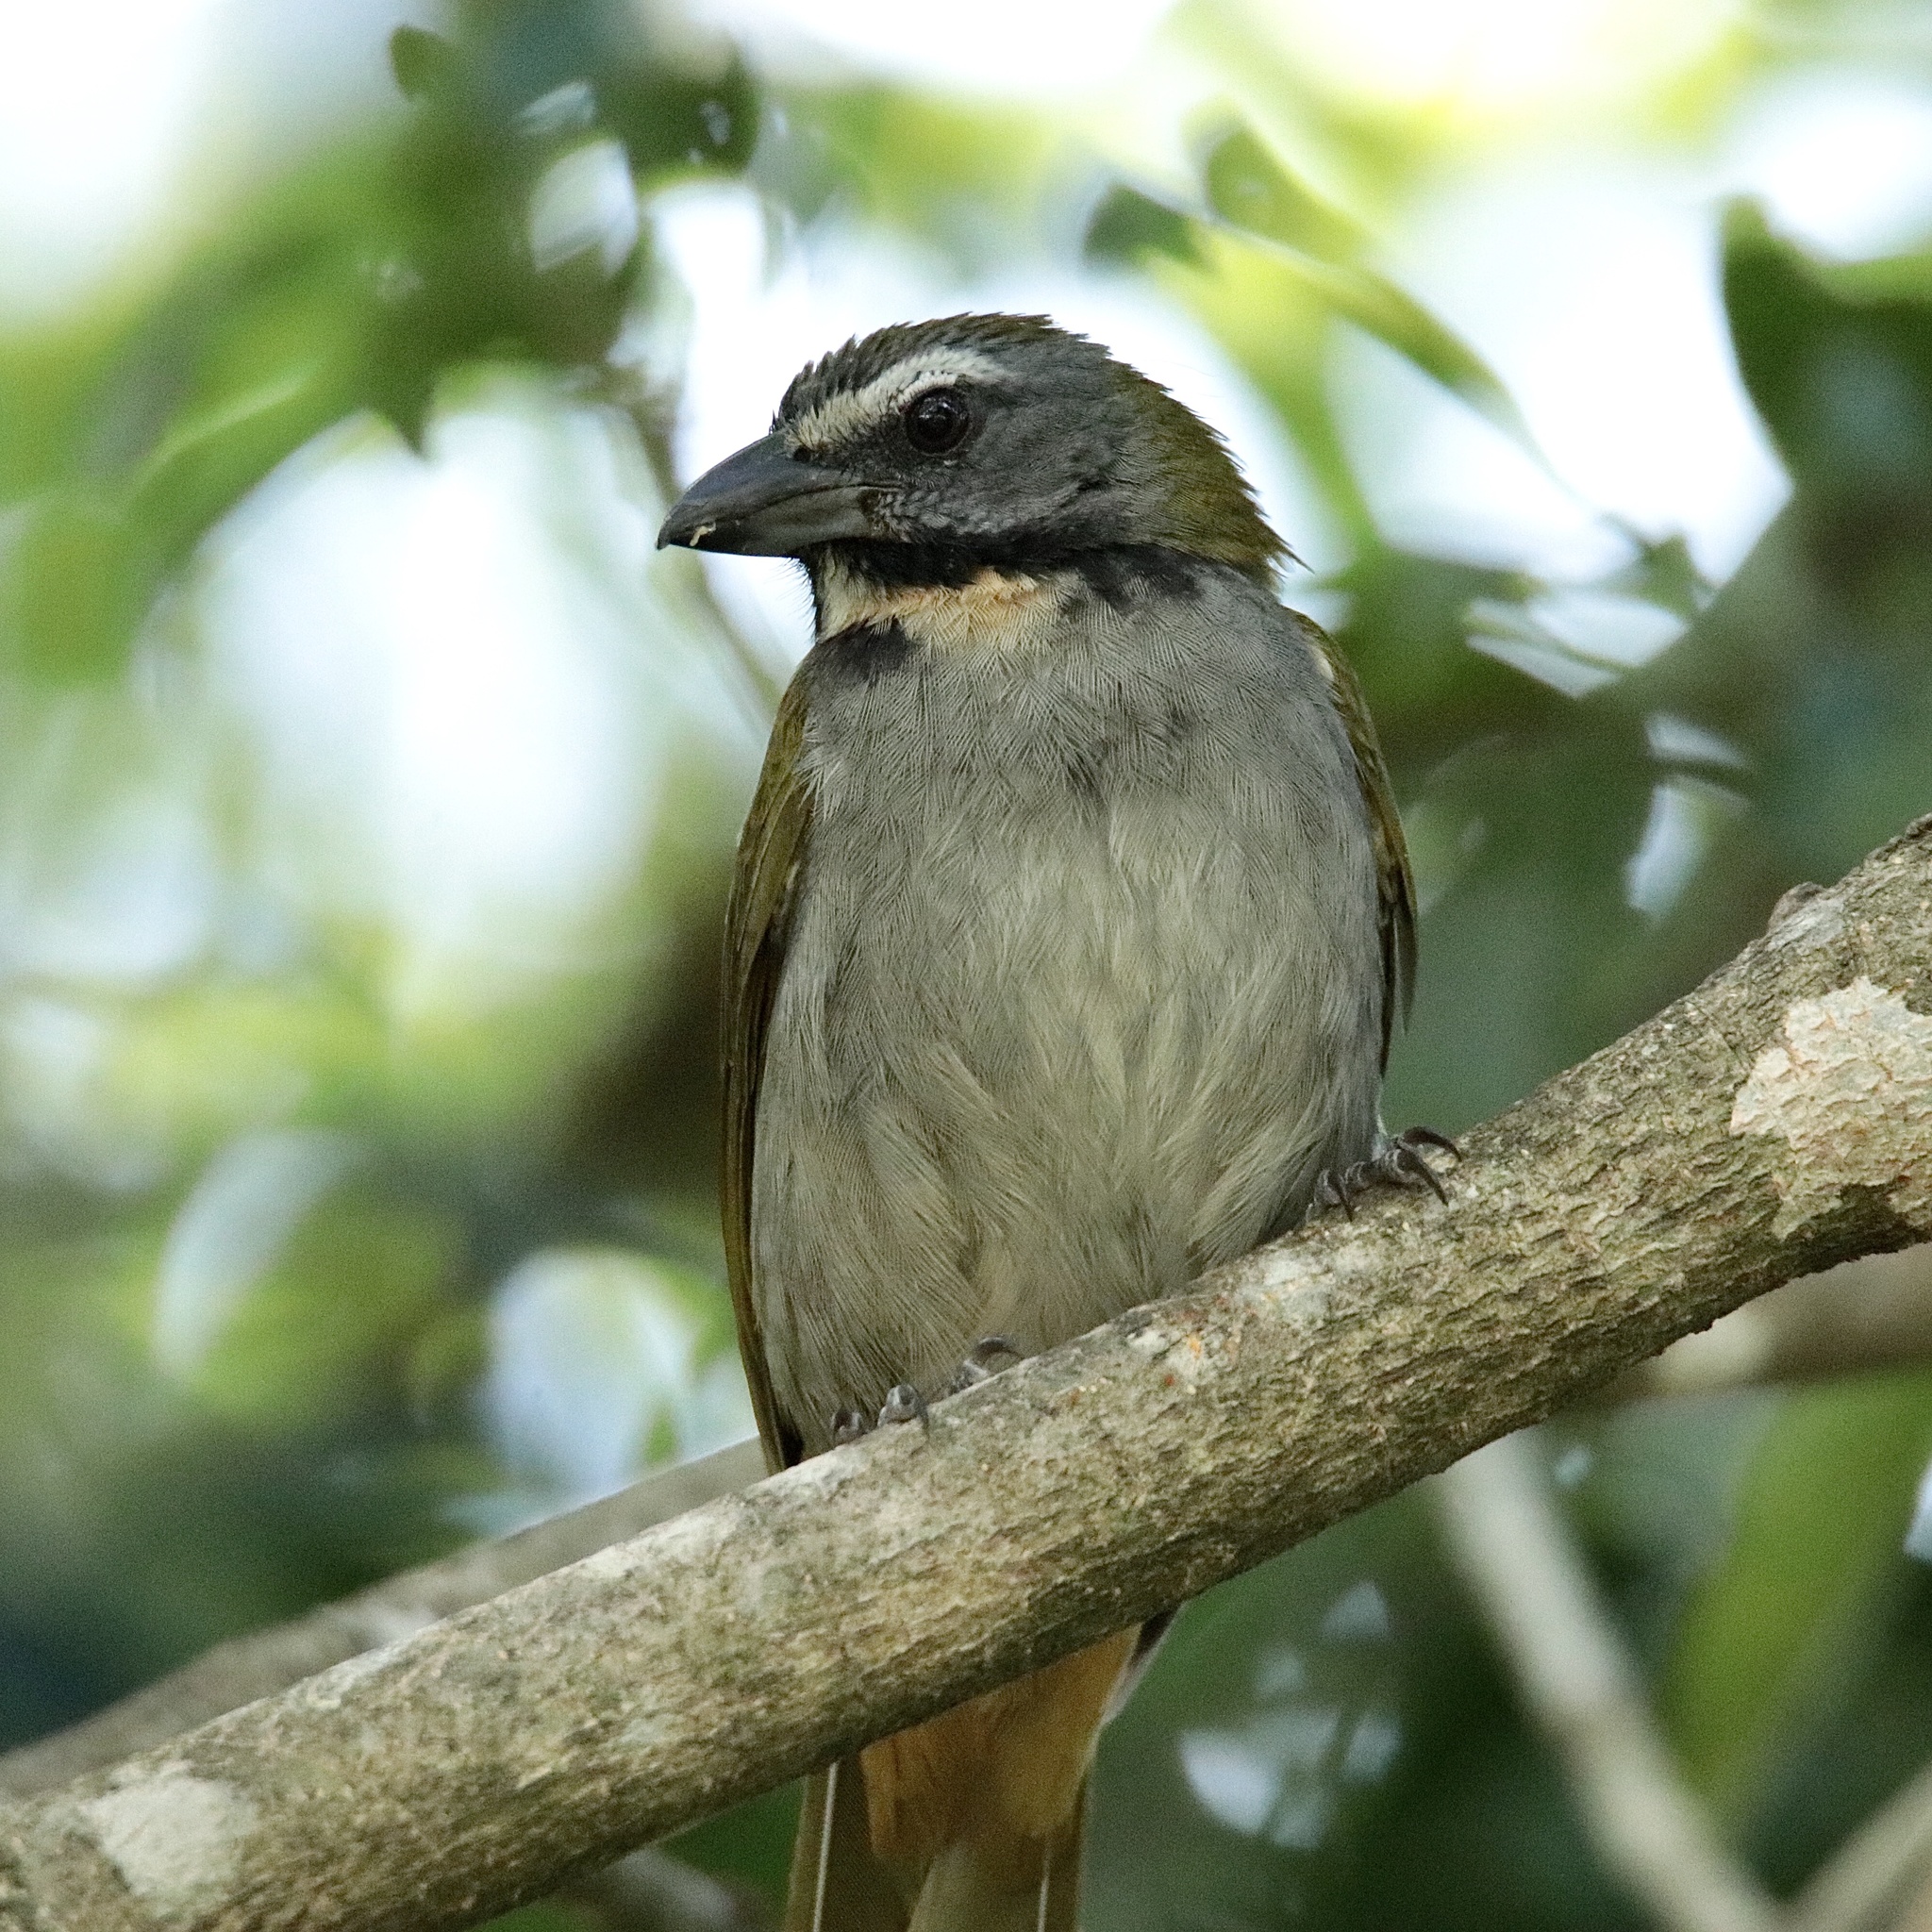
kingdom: Animalia
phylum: Chordata
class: Aves
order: Passeriformes
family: Thraupidae
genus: Saltator
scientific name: Saltator maximus
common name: Buff-throated saltator
